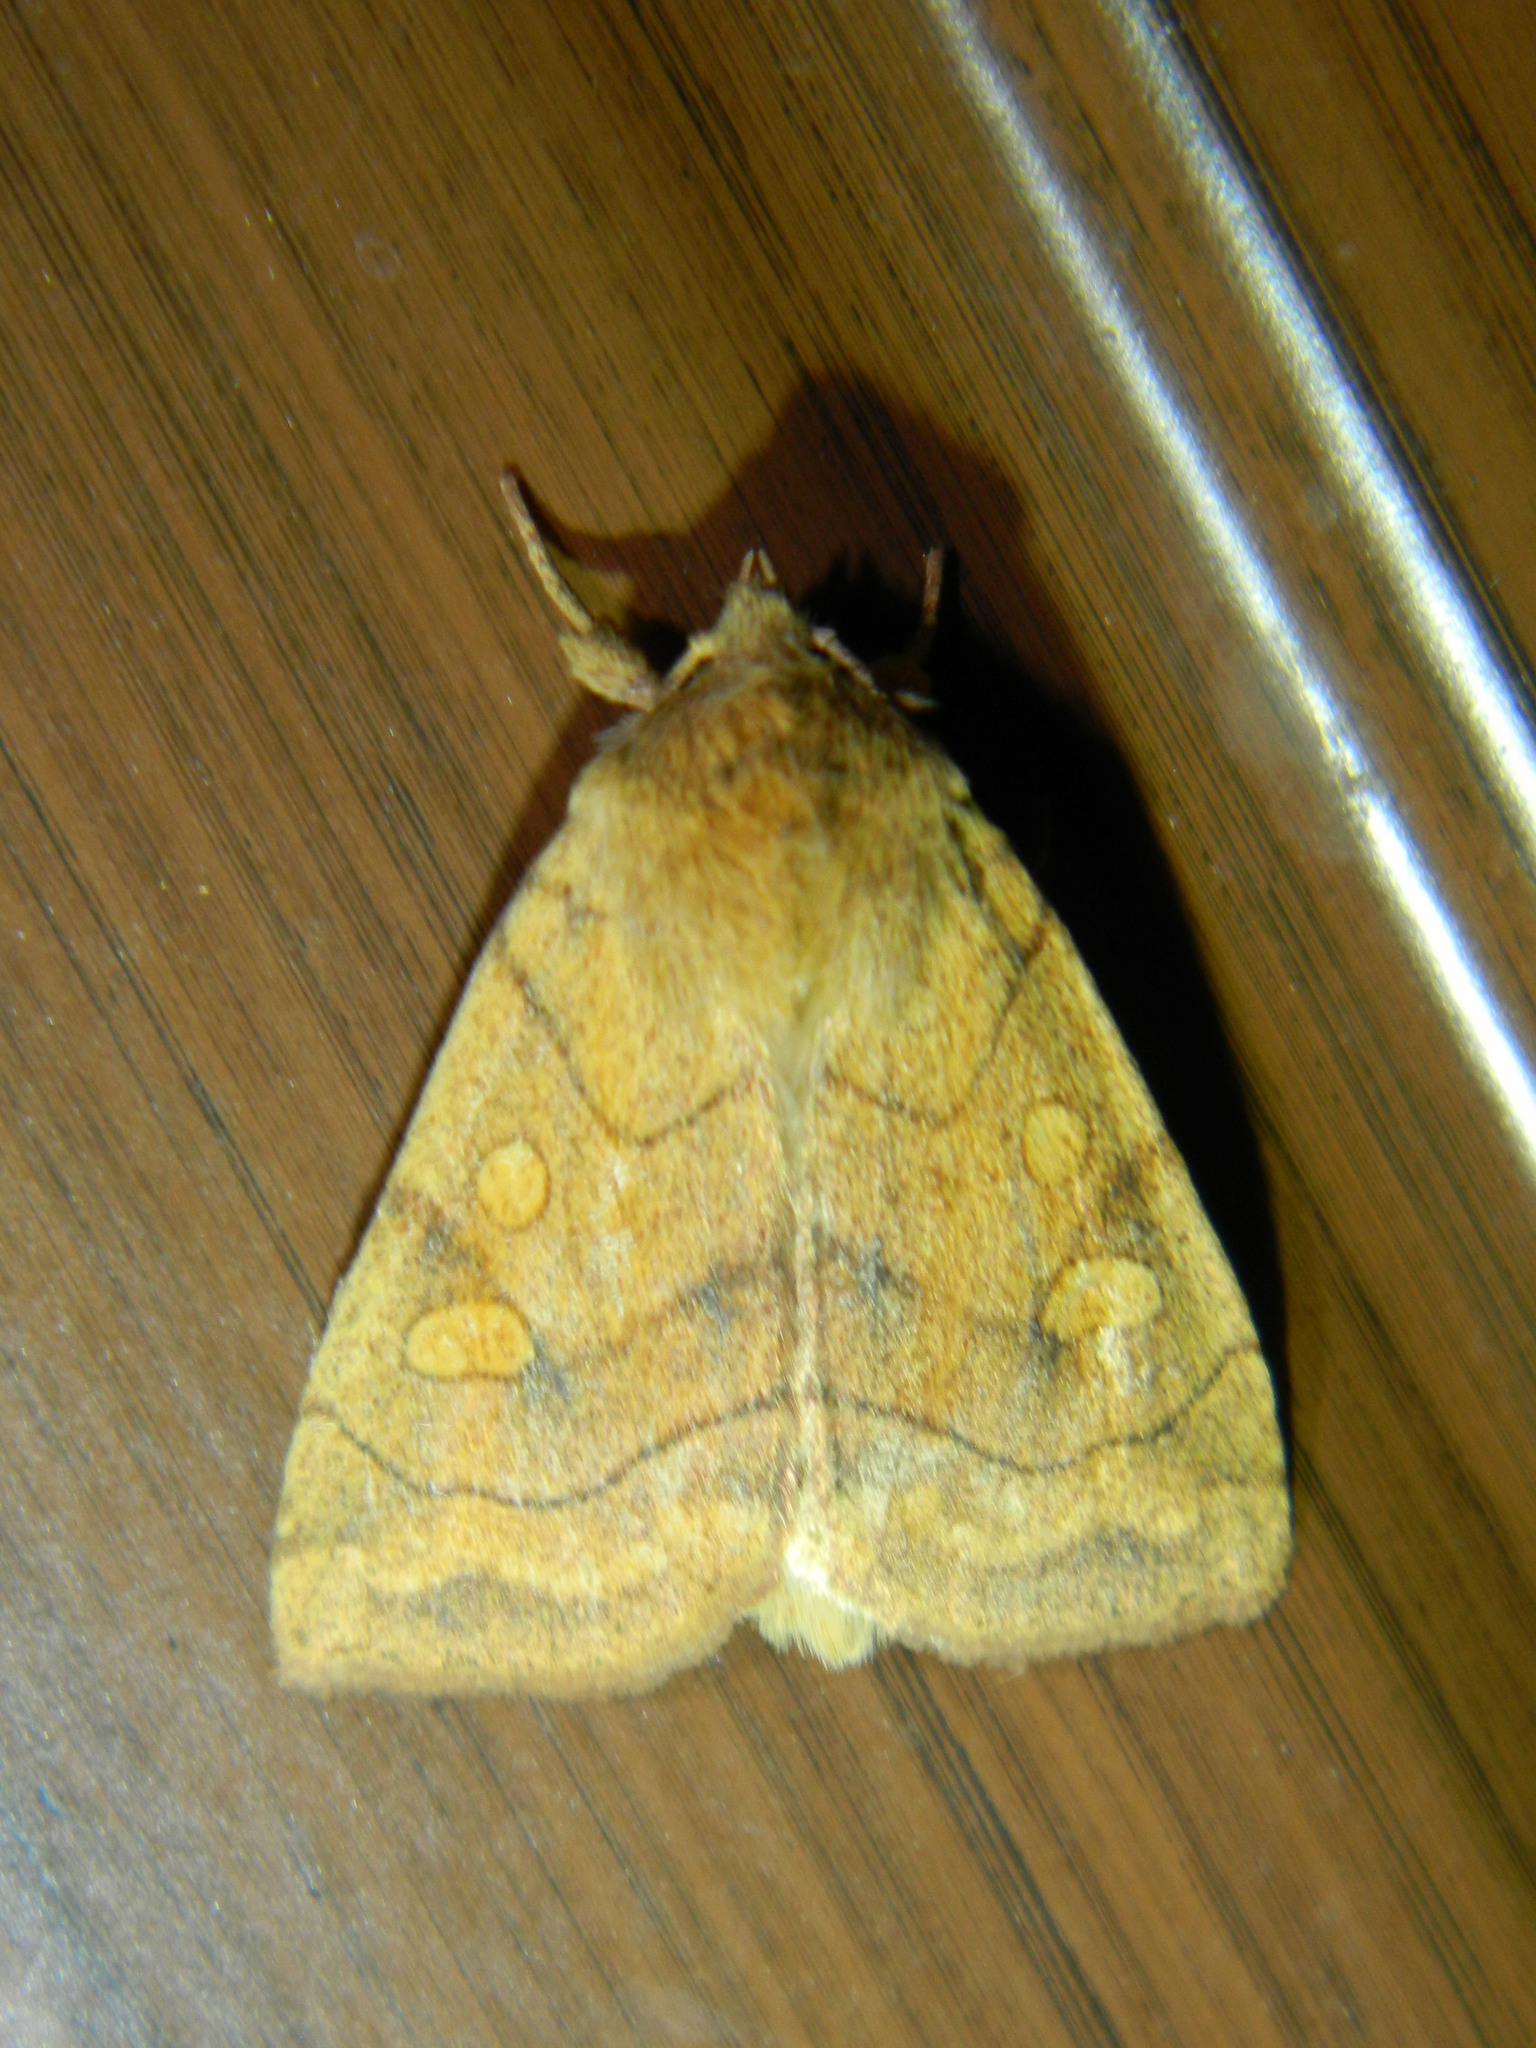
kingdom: Animalia
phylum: Arthropoda
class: Insecta
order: Lepidoptera
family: Noctuidae
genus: Enargia
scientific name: Enargia decolor
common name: Aspen twoleaf tier moth
